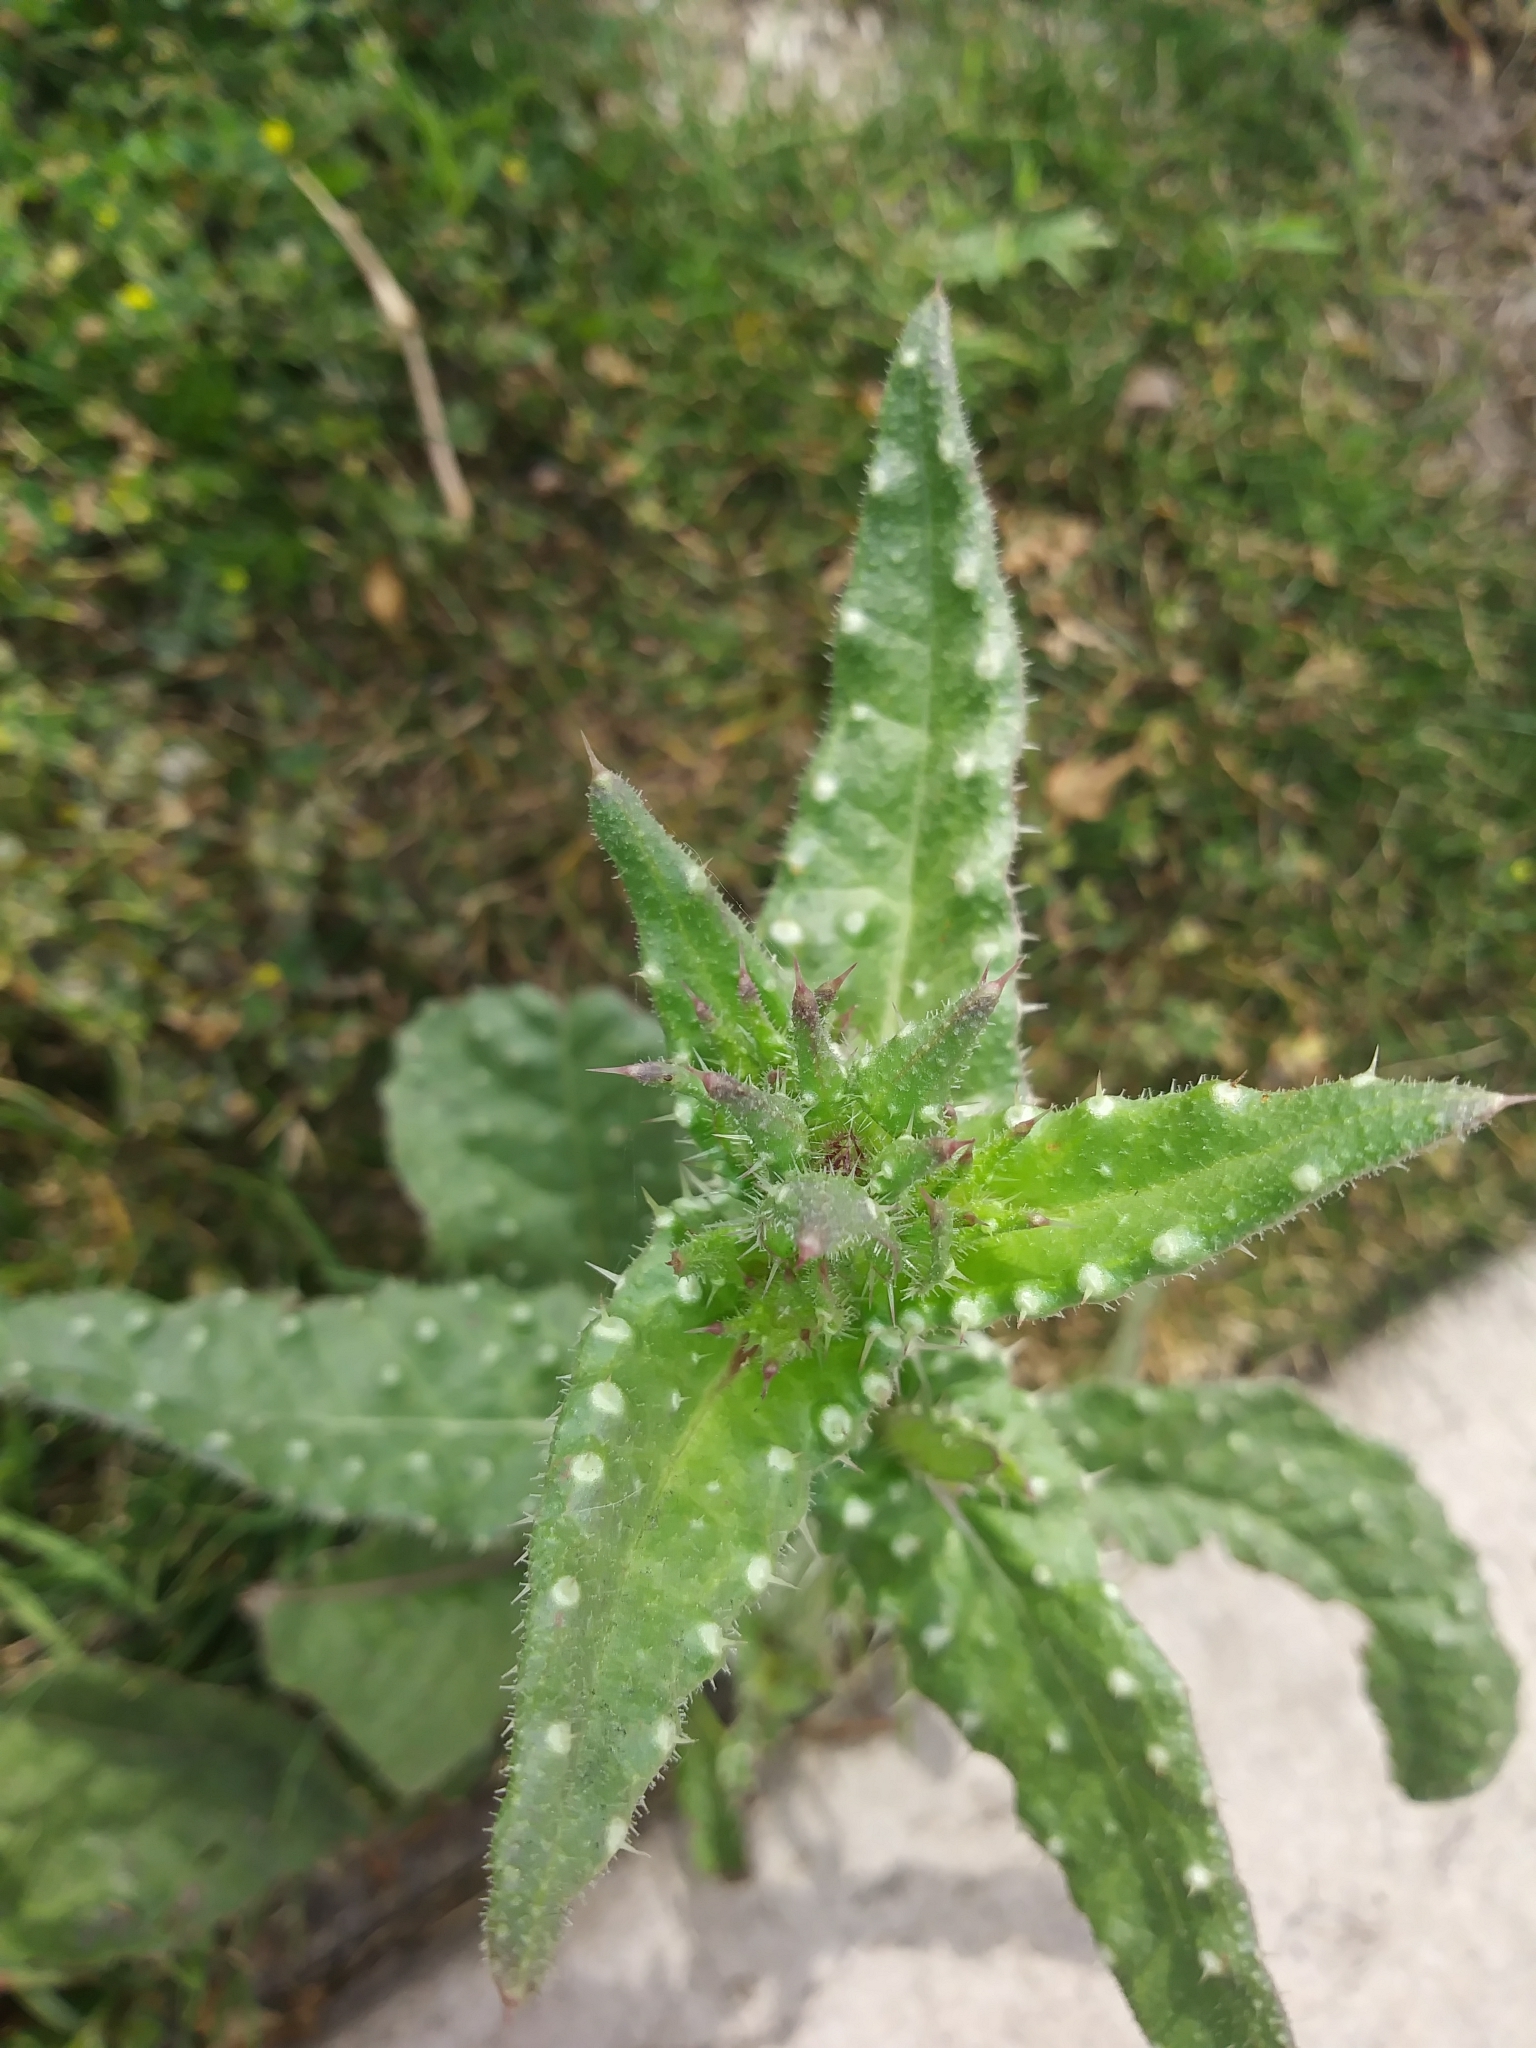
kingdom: Plantae
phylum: Tracheophyta
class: Magnoliopsida
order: Asterales
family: Asteraceae
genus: Helminthotheca
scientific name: Helminthotheca echioides
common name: Ox-tongue
